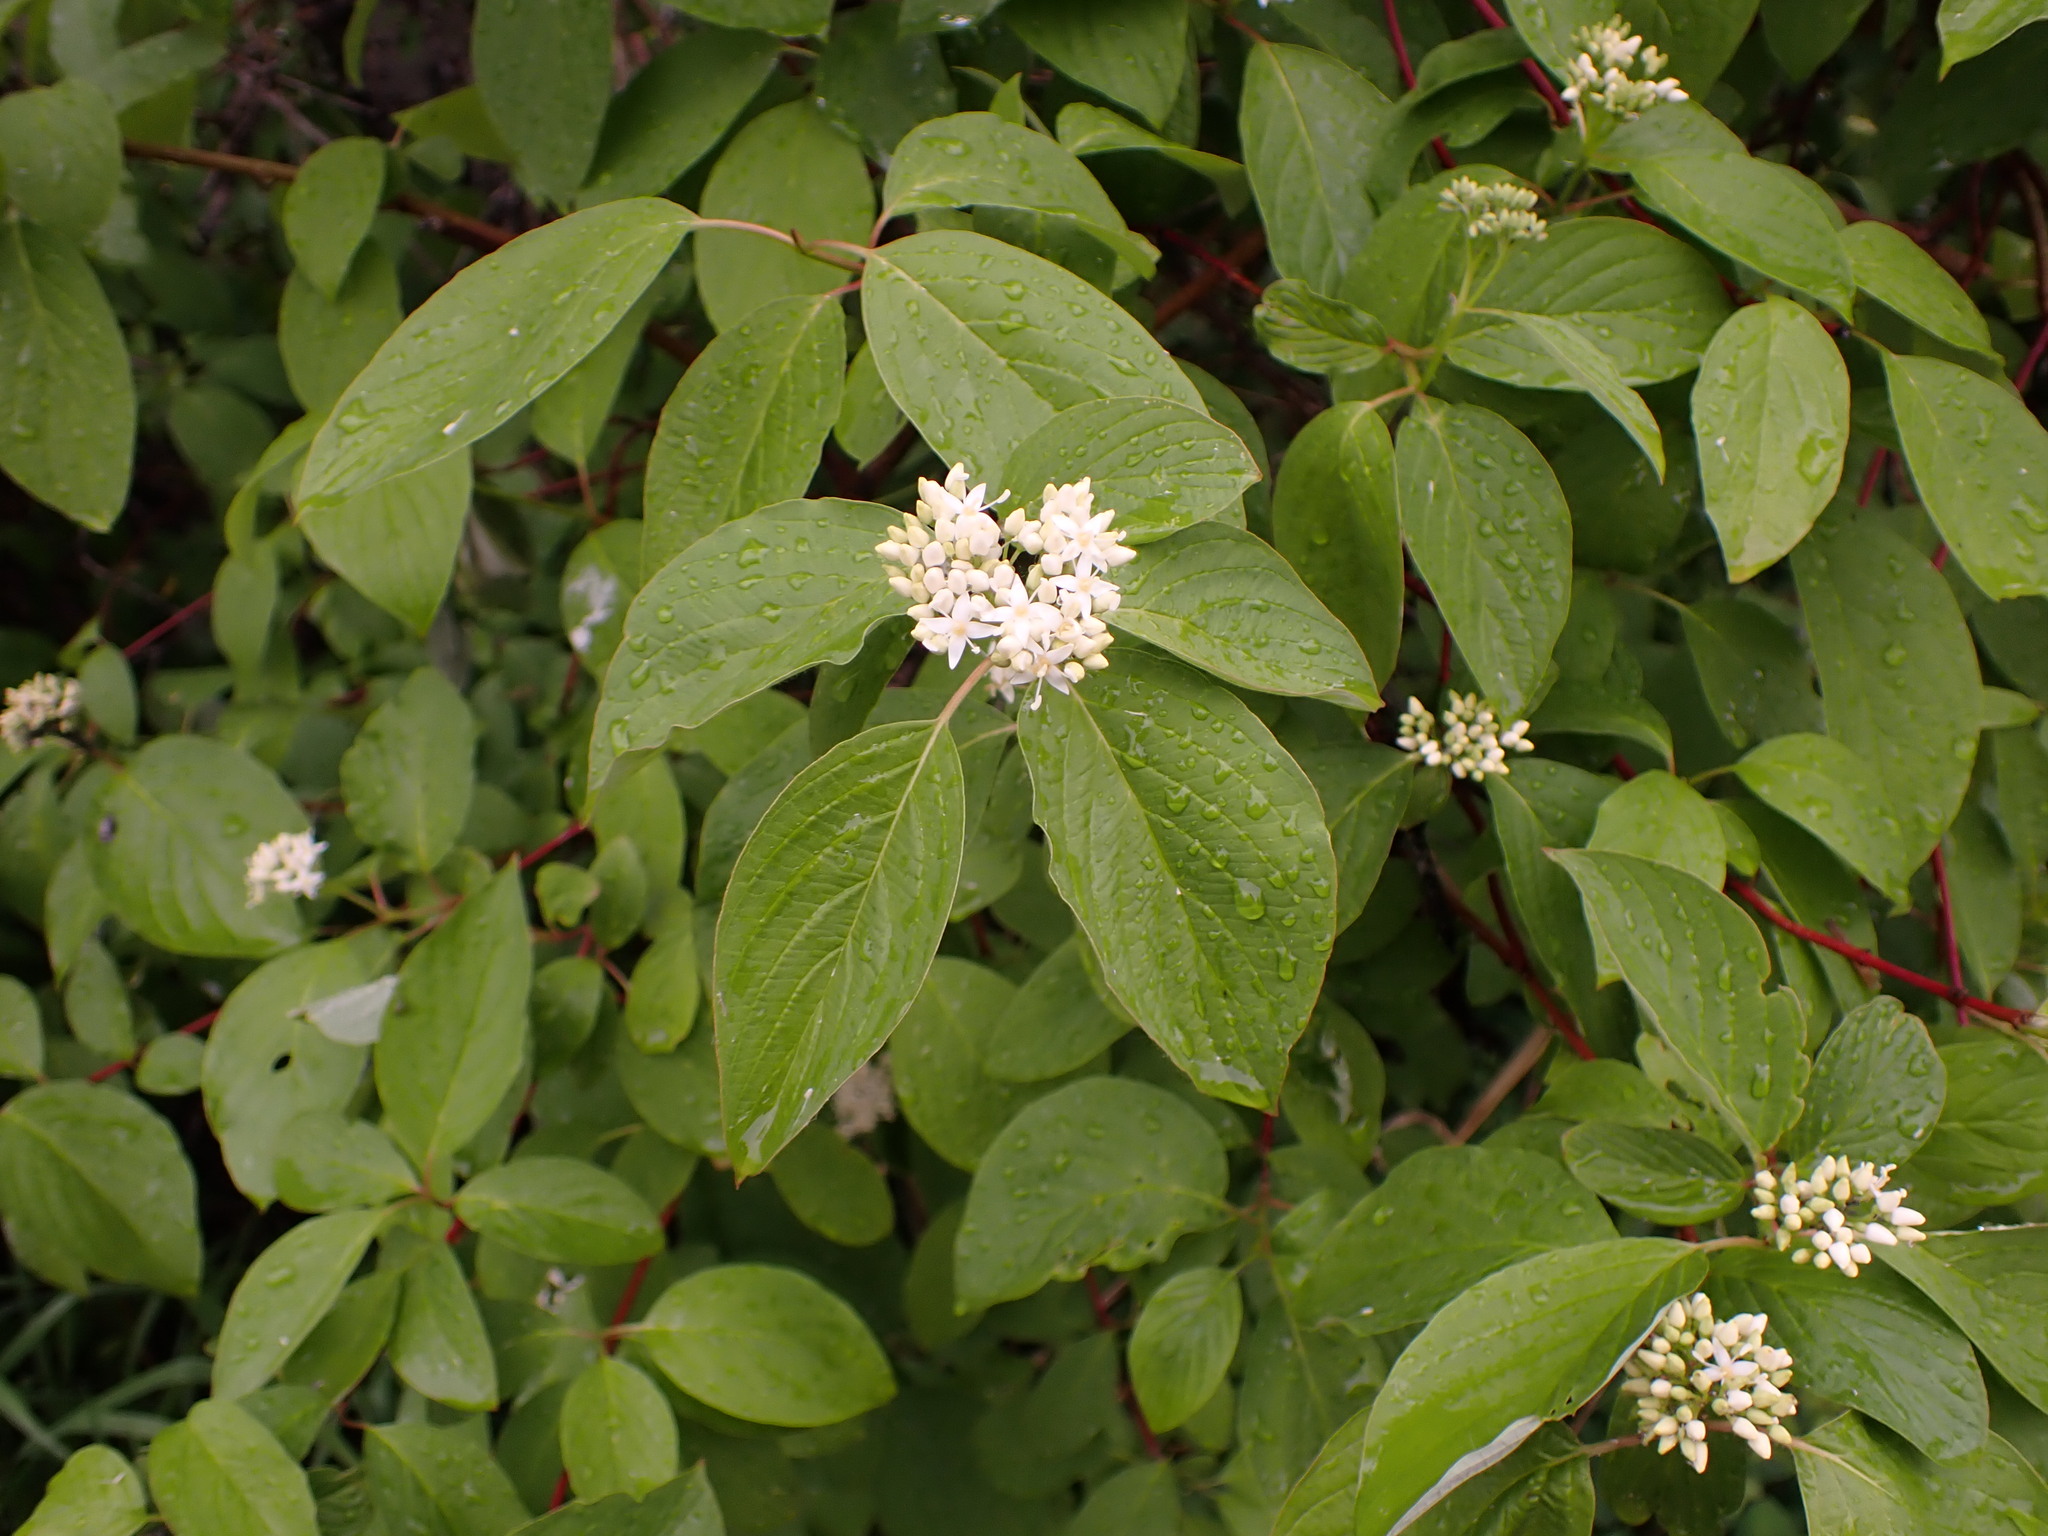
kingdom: Plantae
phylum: Tracheophyta
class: Magnoliopsida
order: Cornales
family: Cornaceae
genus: Cornus
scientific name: Cornus sericea
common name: Red-osier dogwood
